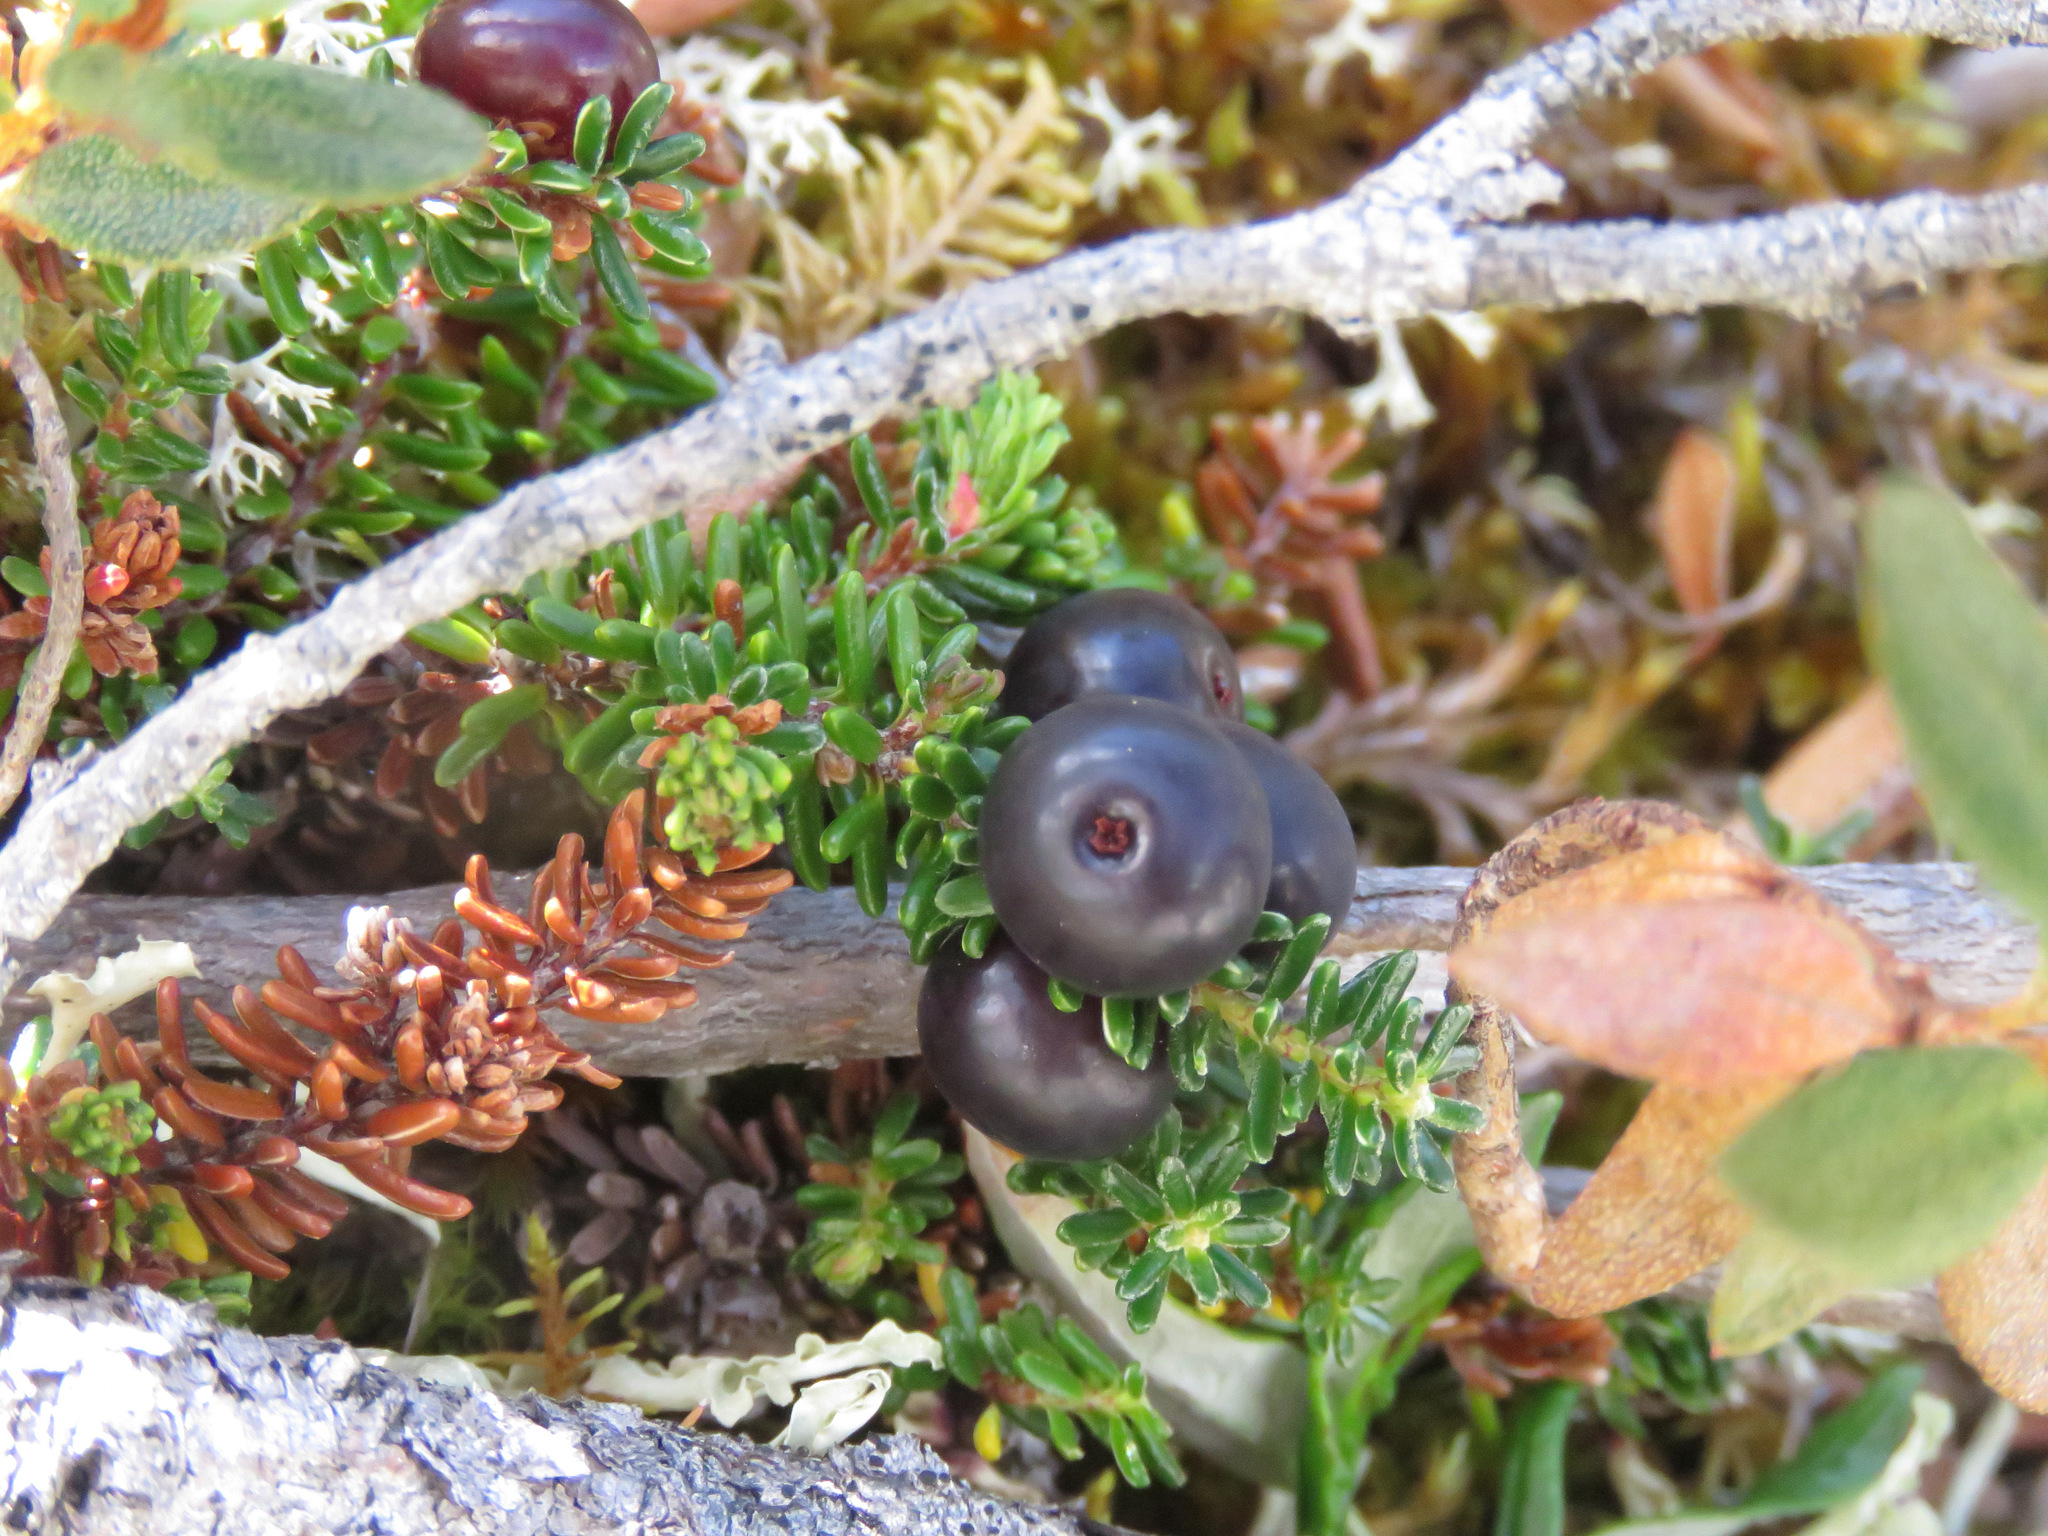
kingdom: Plantae
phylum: Tracheophyta
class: Magnoliopsida
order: Ericales
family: Ericaceae
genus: Empetrum
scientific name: Empetrum nigrum
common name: Black crowberry
